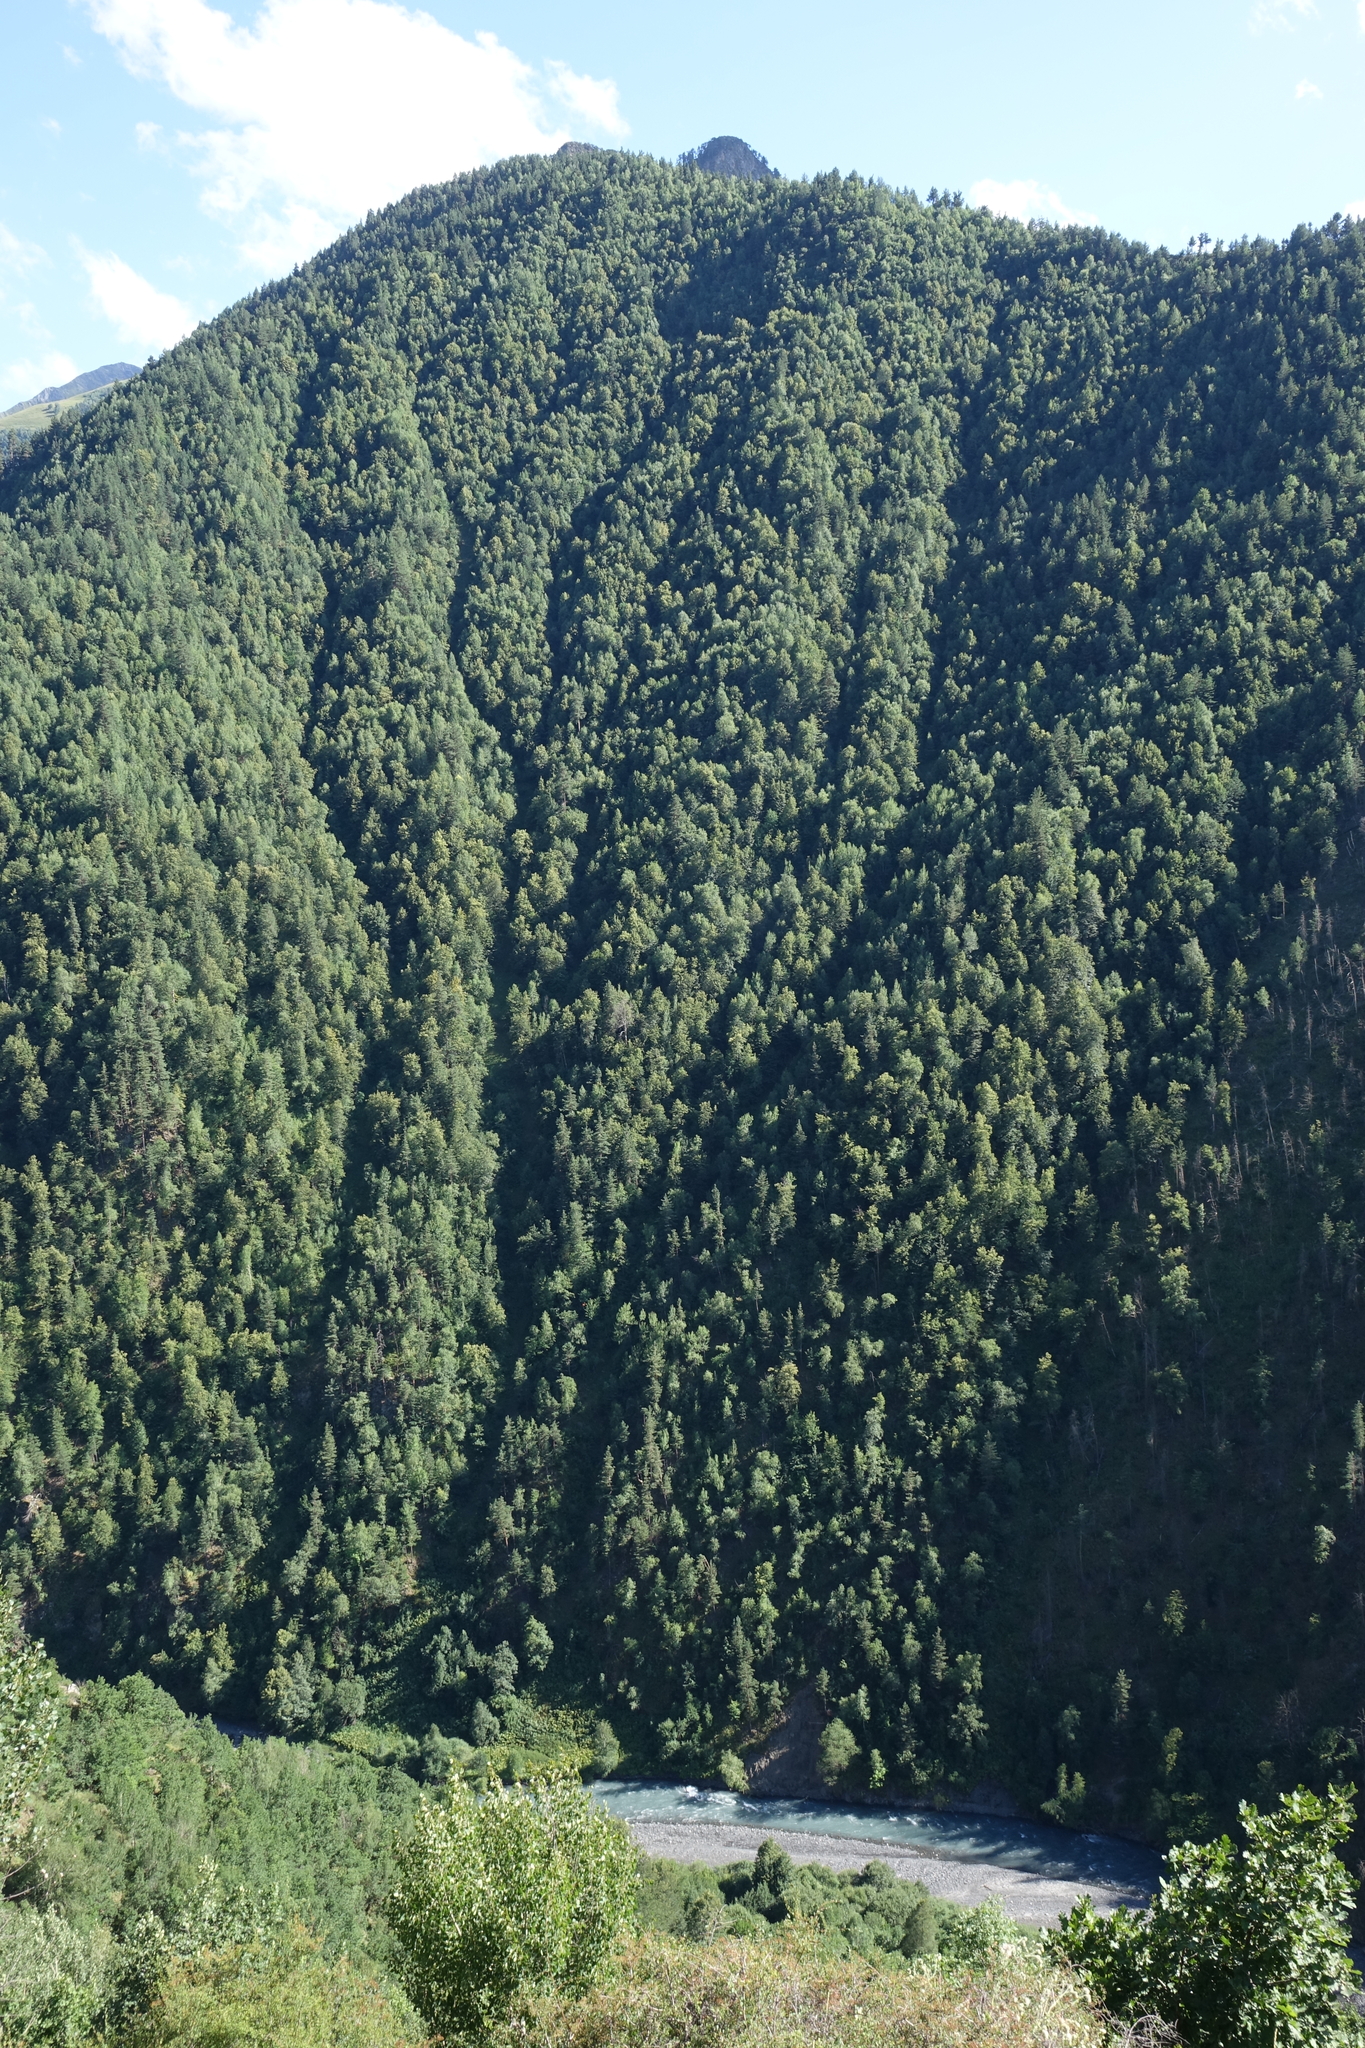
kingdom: Plantae
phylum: Tracheophyta
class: Pinopsida
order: Pinales
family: Pinaceae
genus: Pinus
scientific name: Pinus sylvestris
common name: Scots pine
